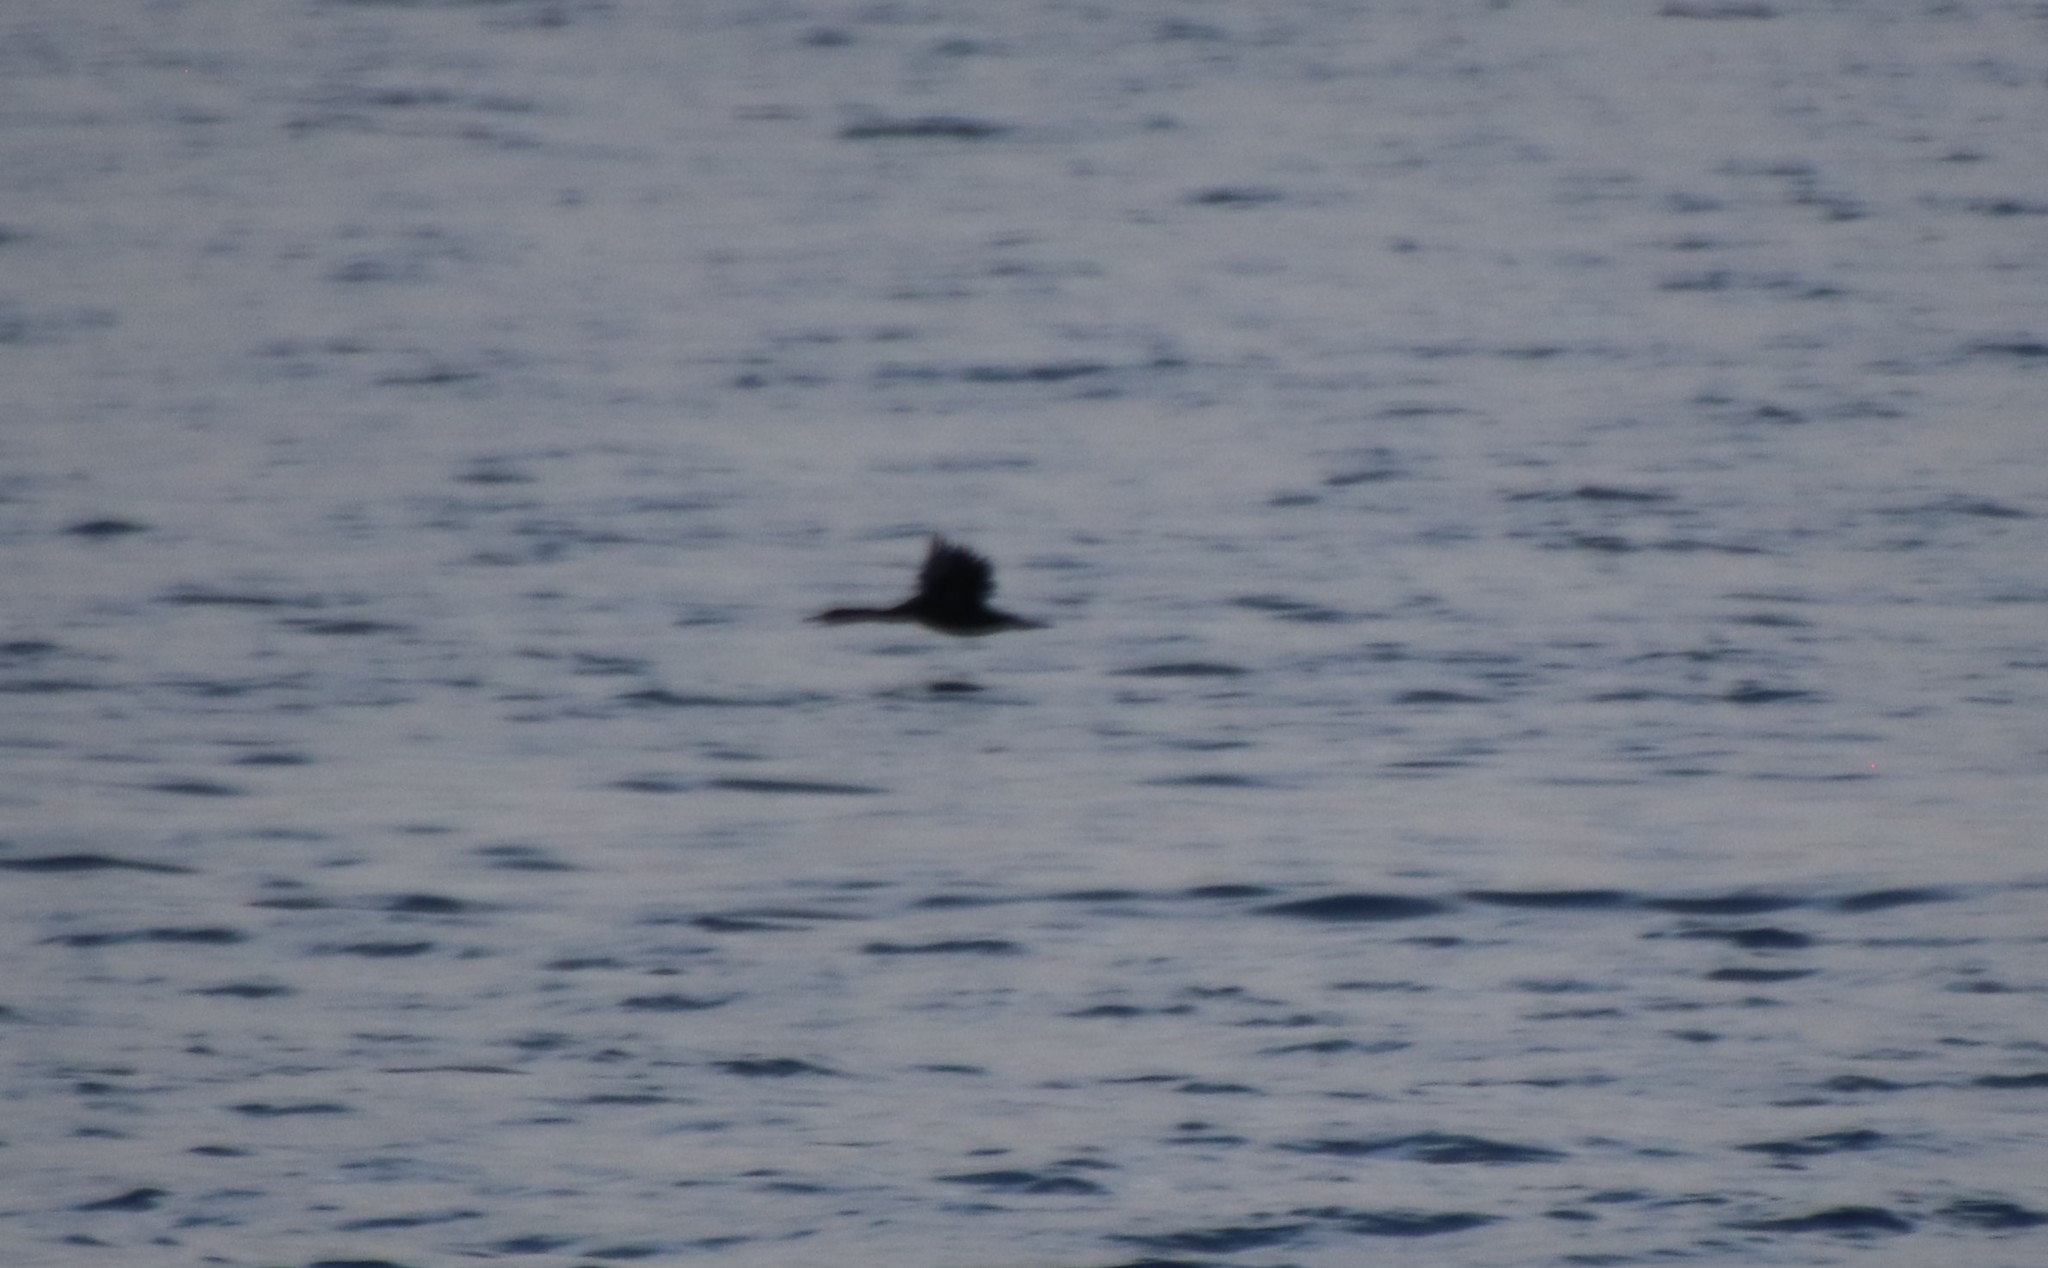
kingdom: Animalia
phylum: Chordata
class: Aves
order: Suliformes
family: Phalacrocoracidae
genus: Urile
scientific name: Urile penicillatus
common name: Brandt's cormorant
